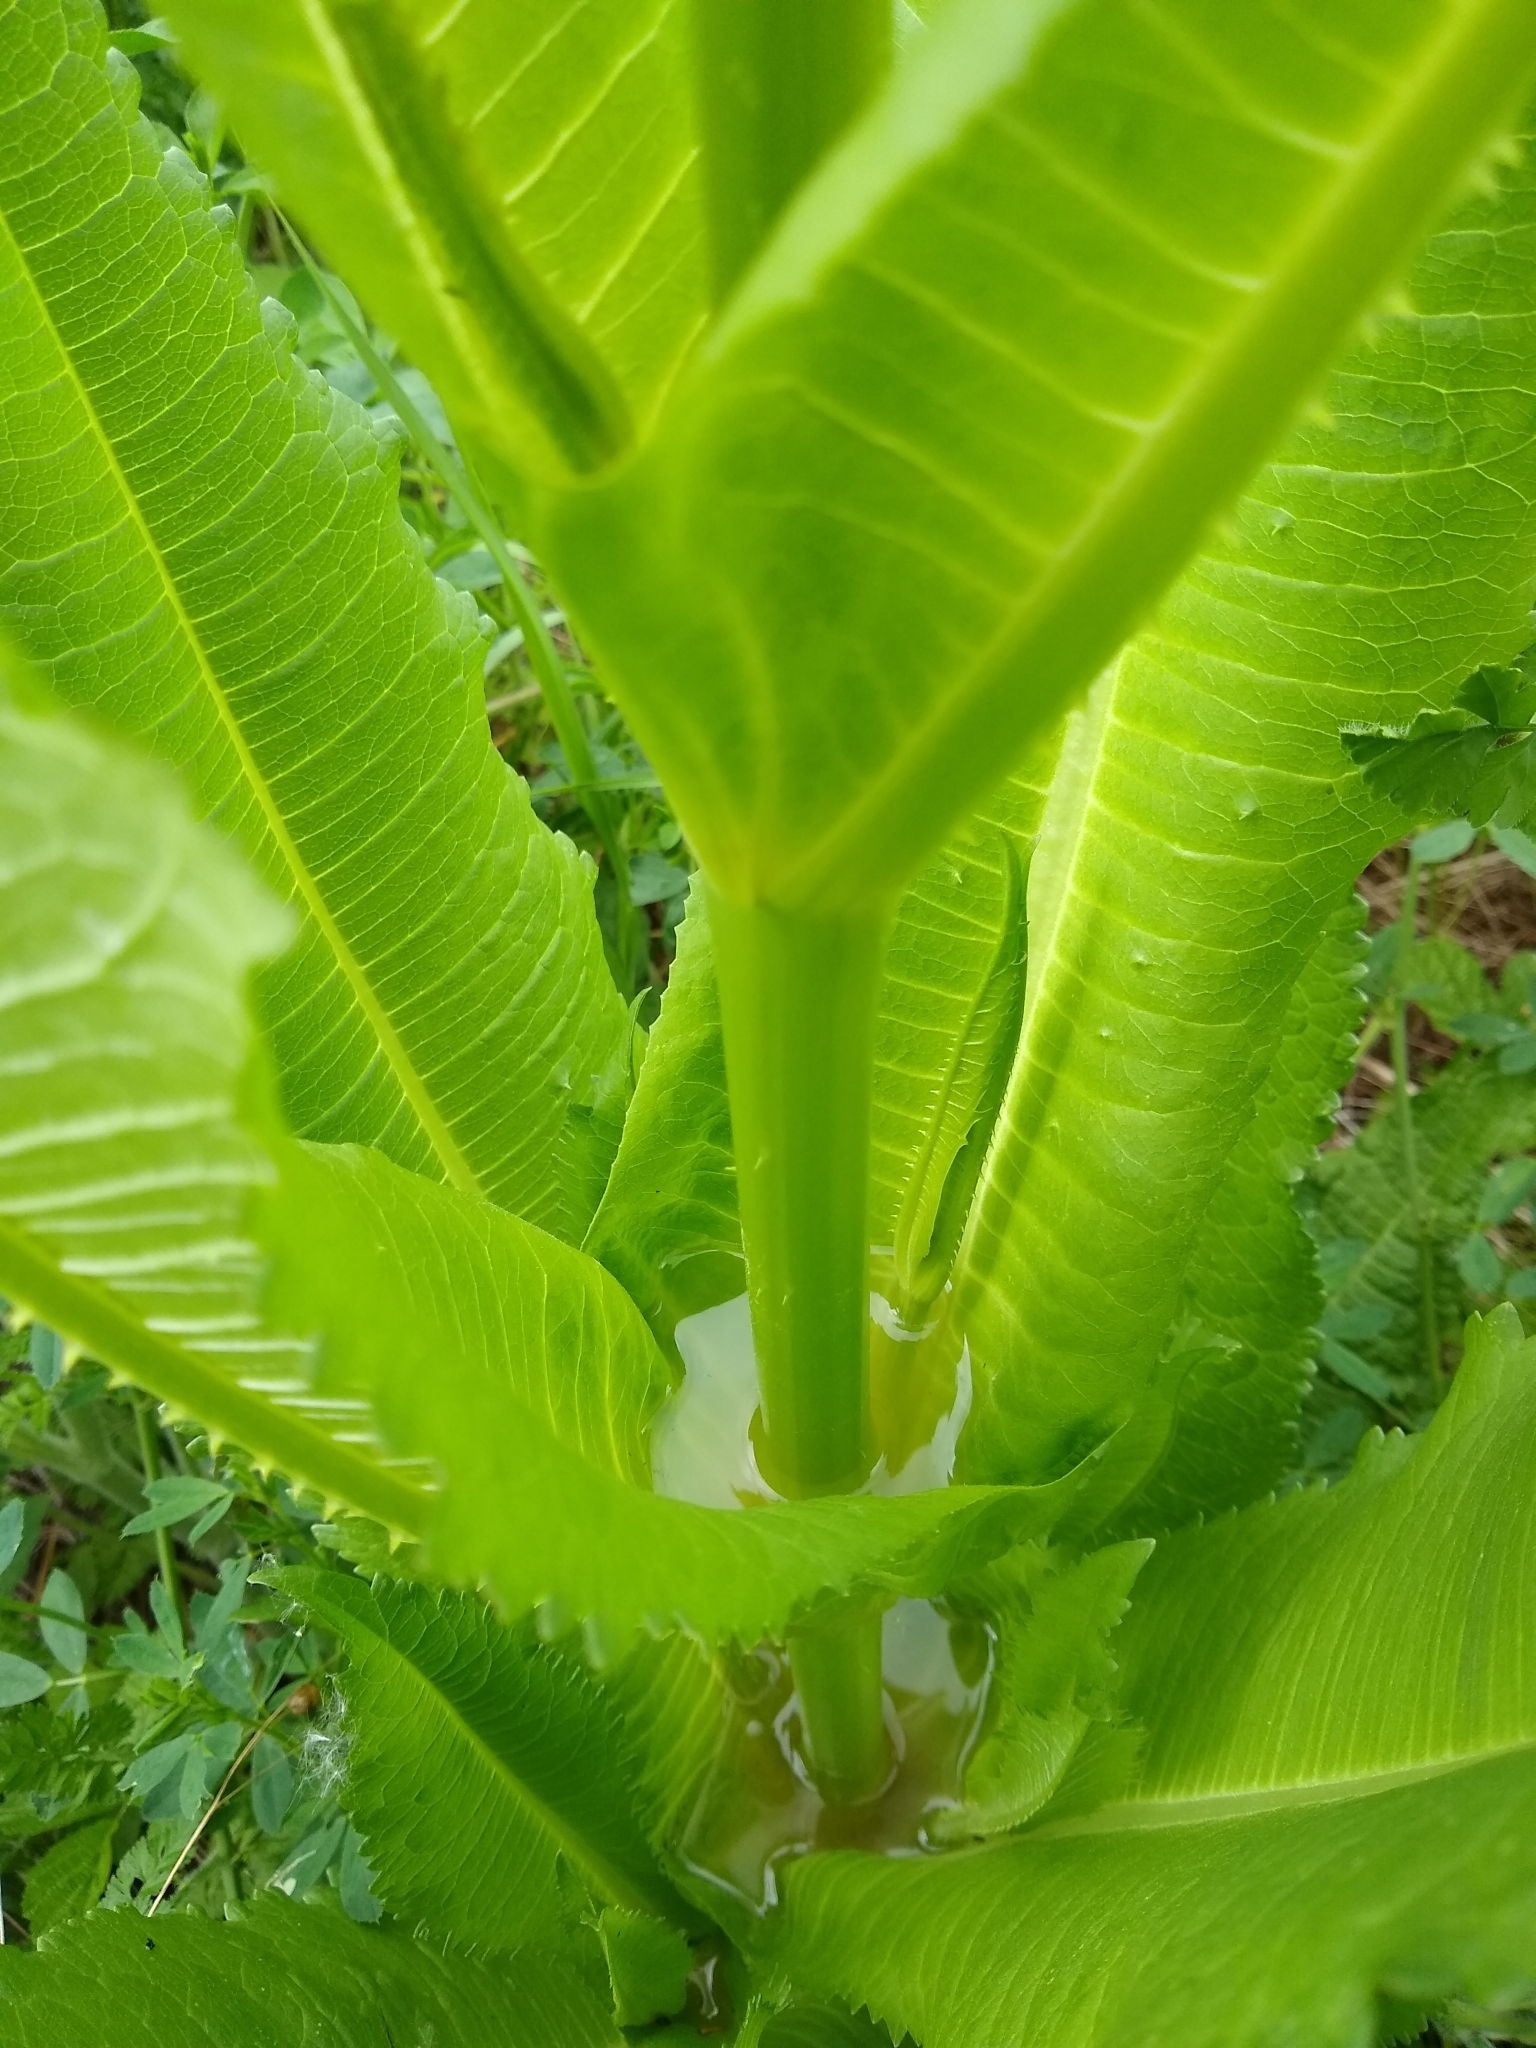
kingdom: Plantae
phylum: Tracheophyta
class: Magnoliopsida
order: Dipsacales
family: Caprifoliaceae
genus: Dipsacus
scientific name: Dipsacus fullonum
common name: Teasel
